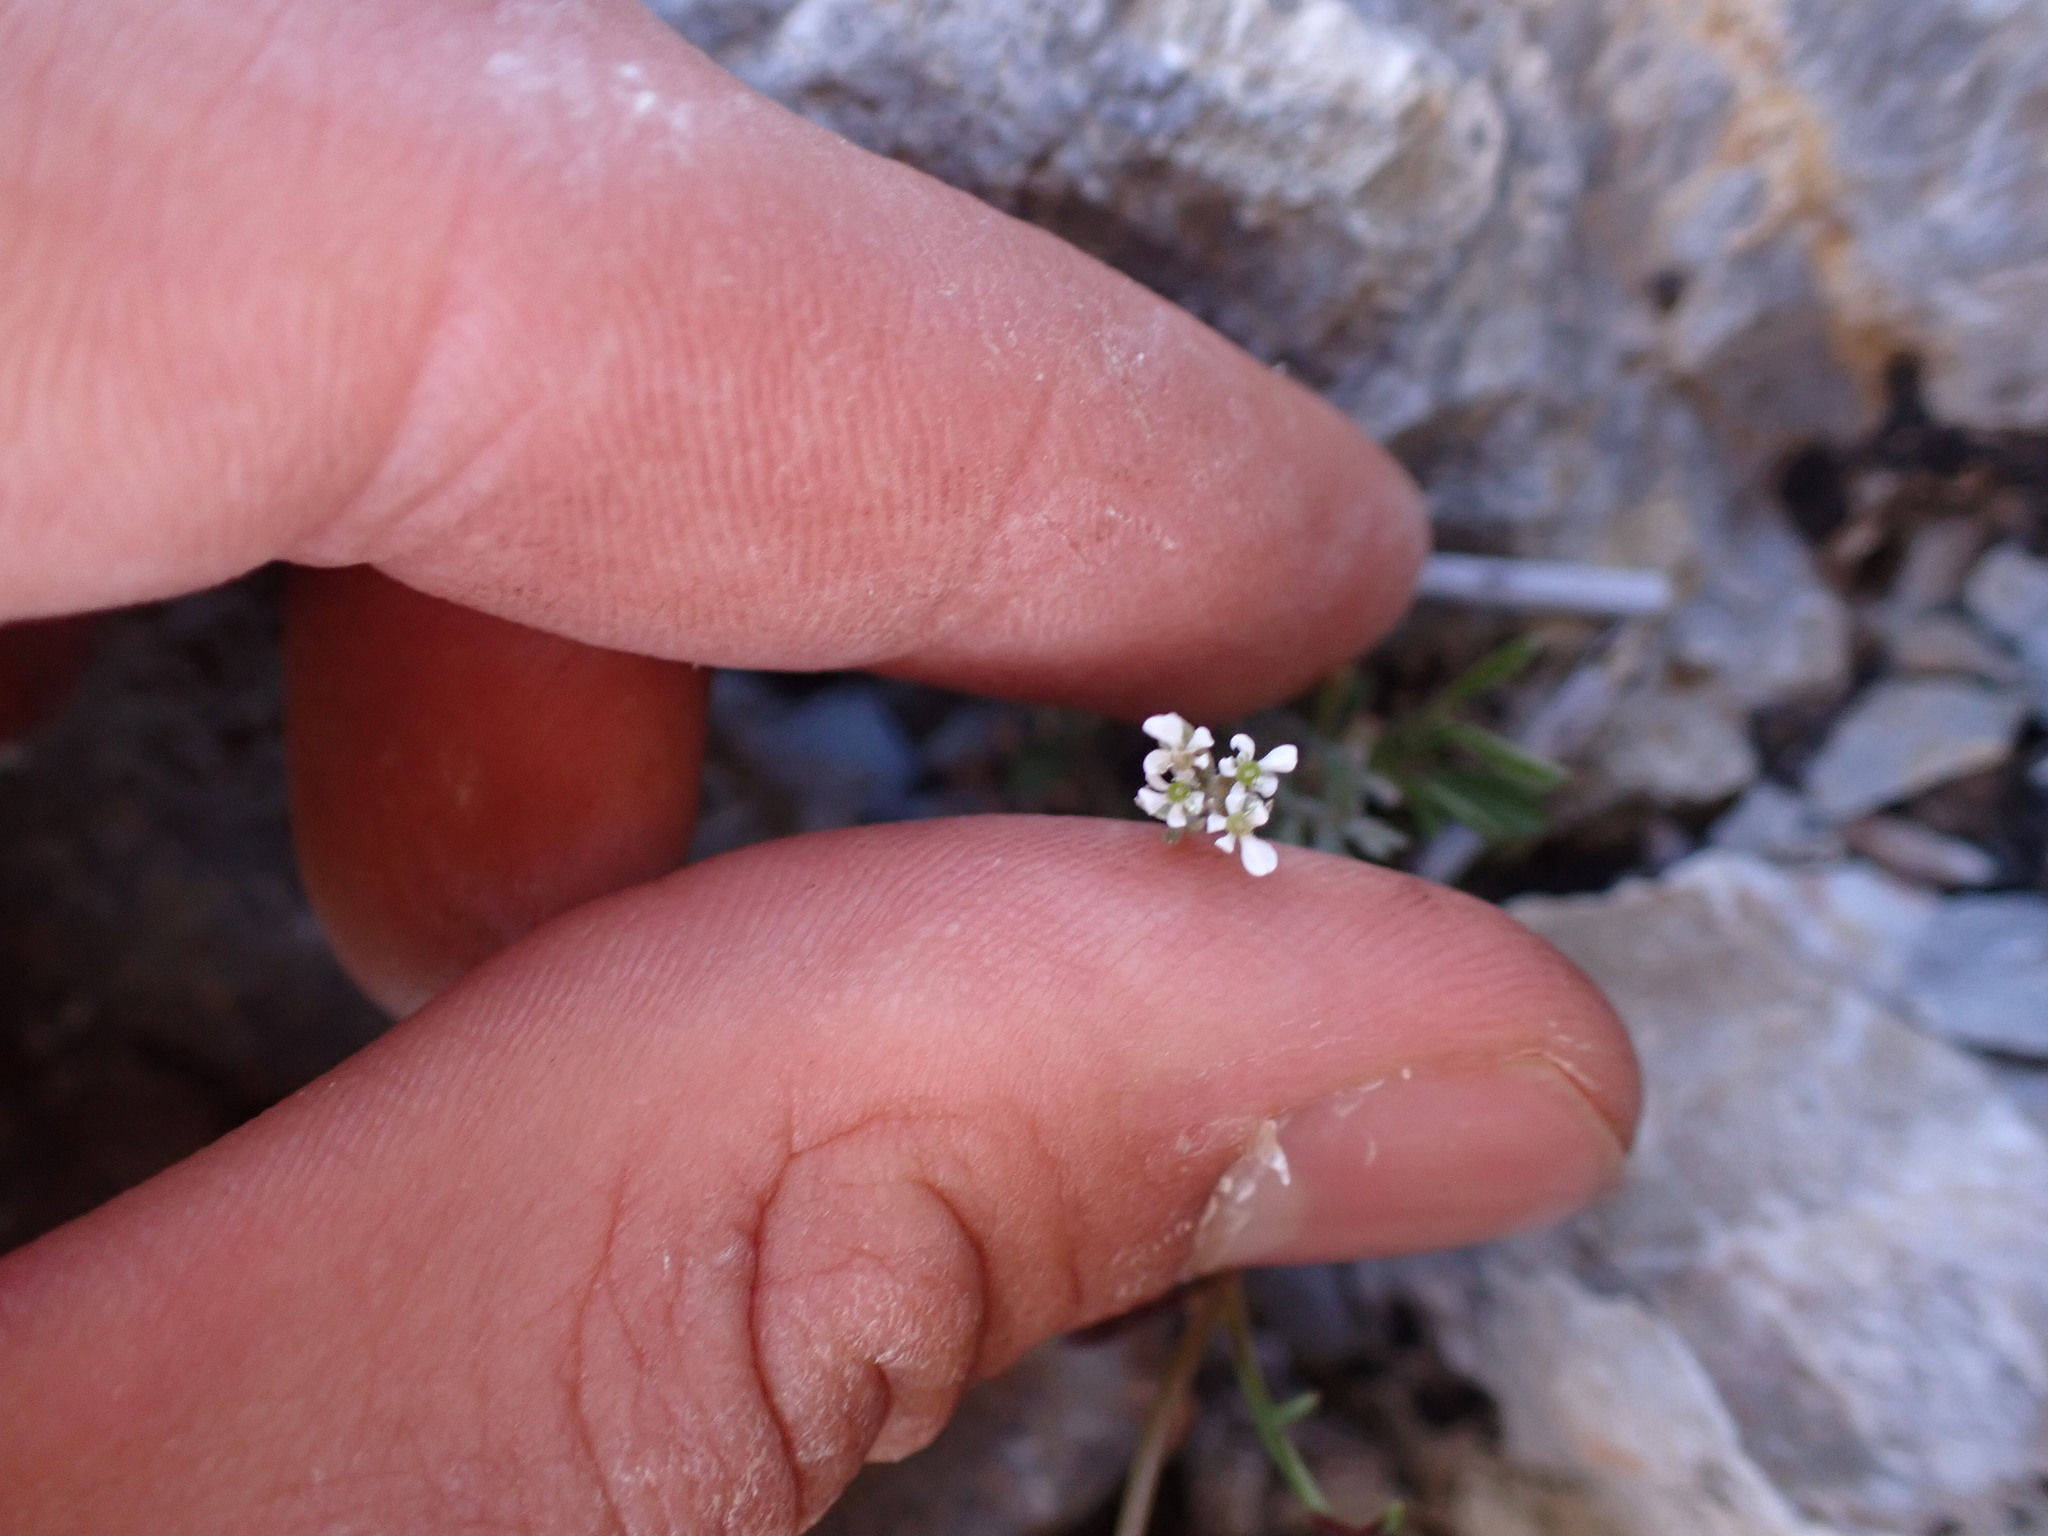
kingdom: Plantae
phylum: Tracheophyta
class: Magnoliopsida
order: Apiales
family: Apiaceae
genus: Scandix
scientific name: Scandix pecten-veneris
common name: Shepherd's-needle
